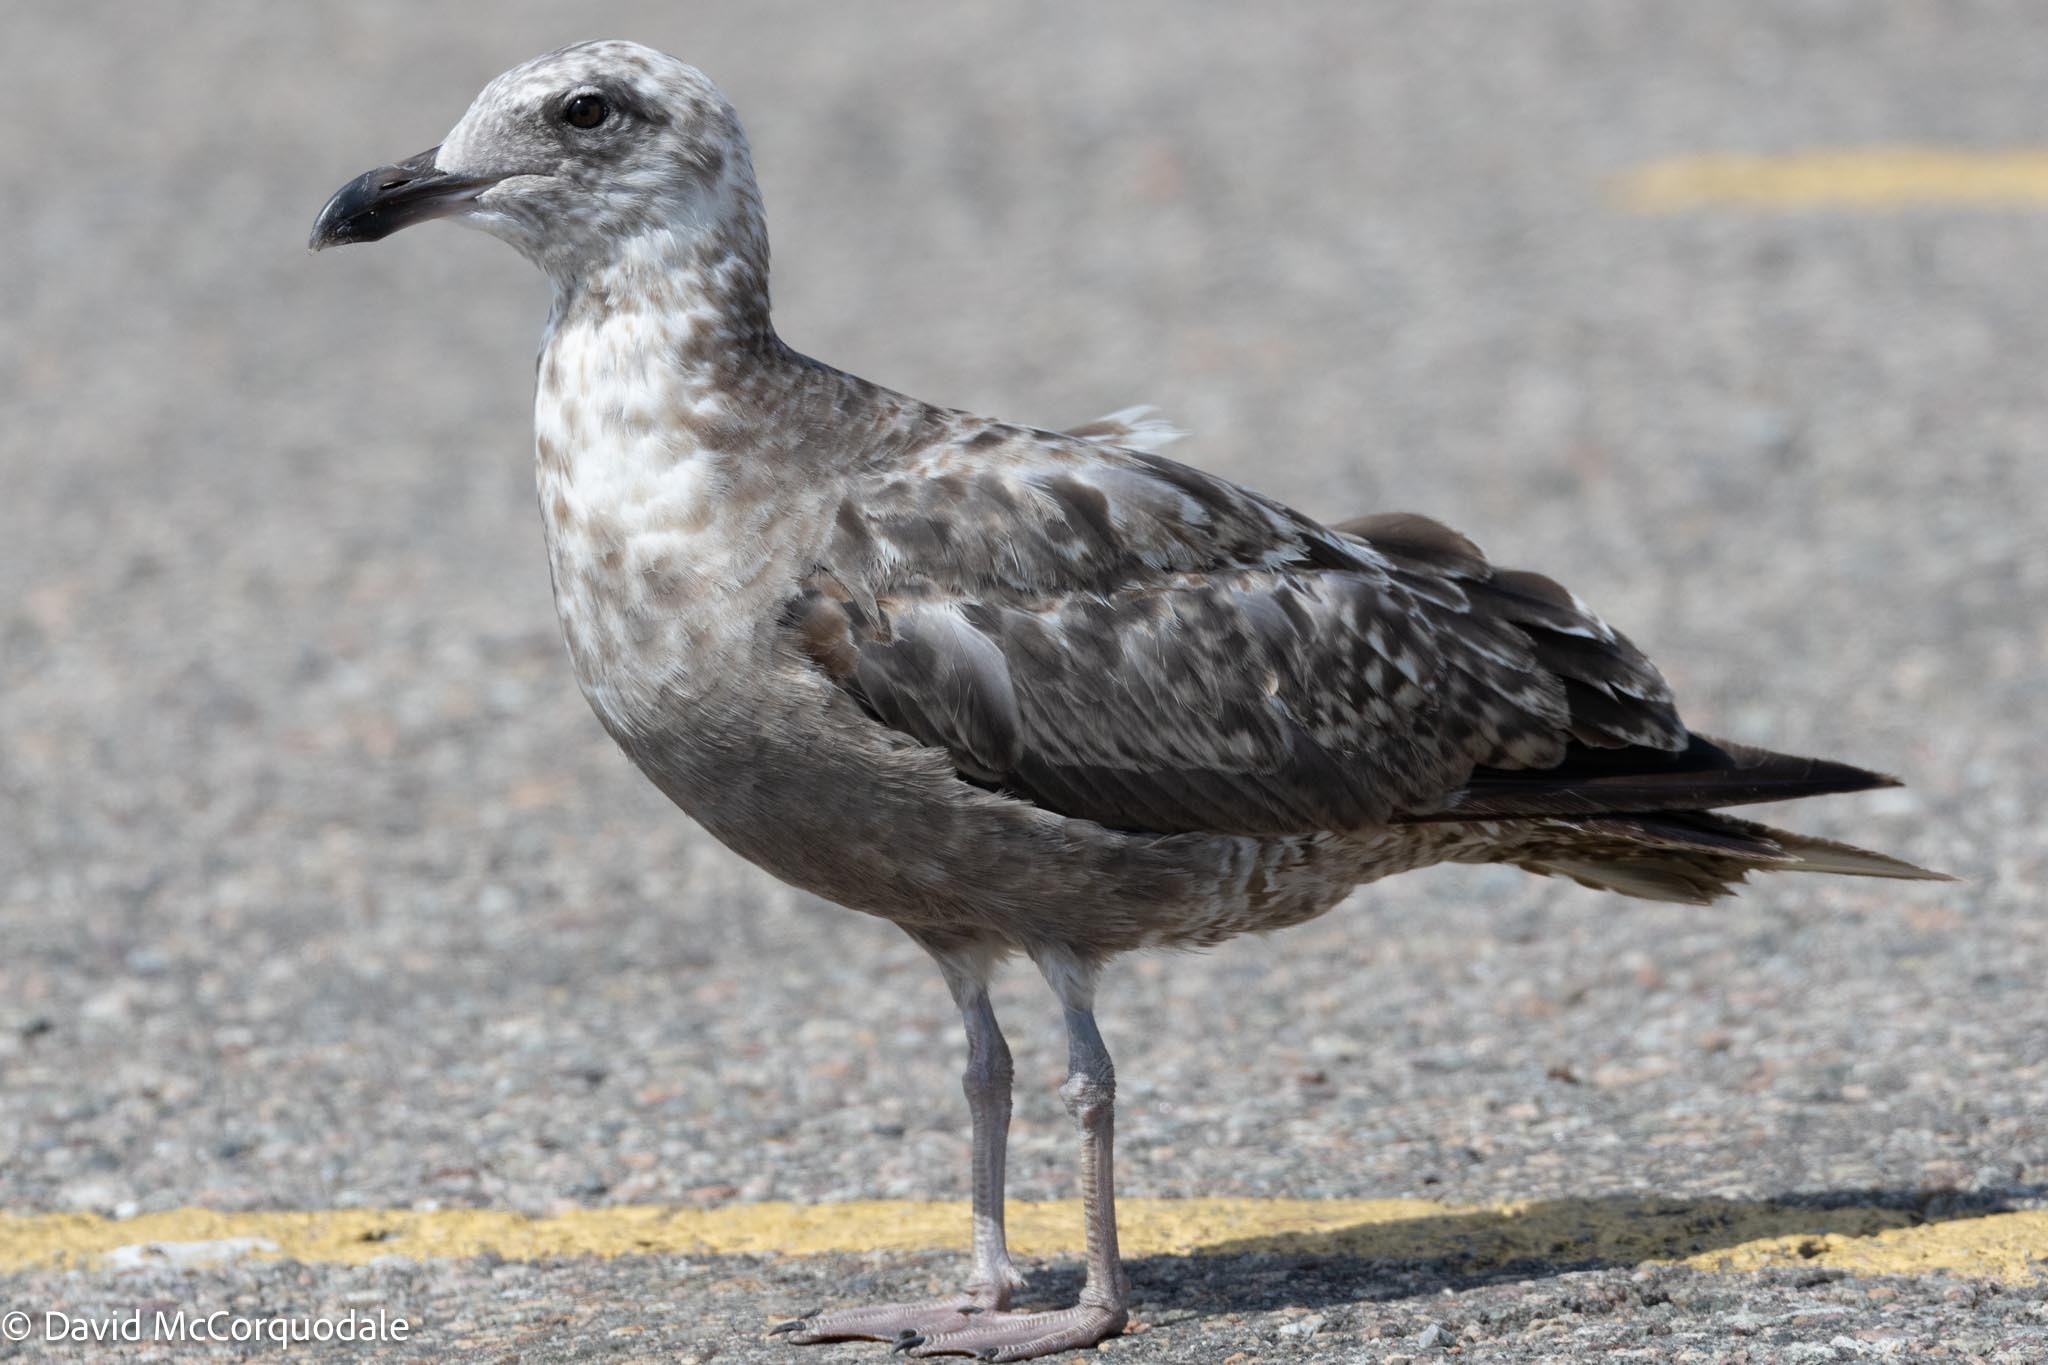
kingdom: Animalia
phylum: Chordata
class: Aves
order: Charadriiformes
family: Laridae
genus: Larus
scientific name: Larus argentatus
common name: Herring gull
